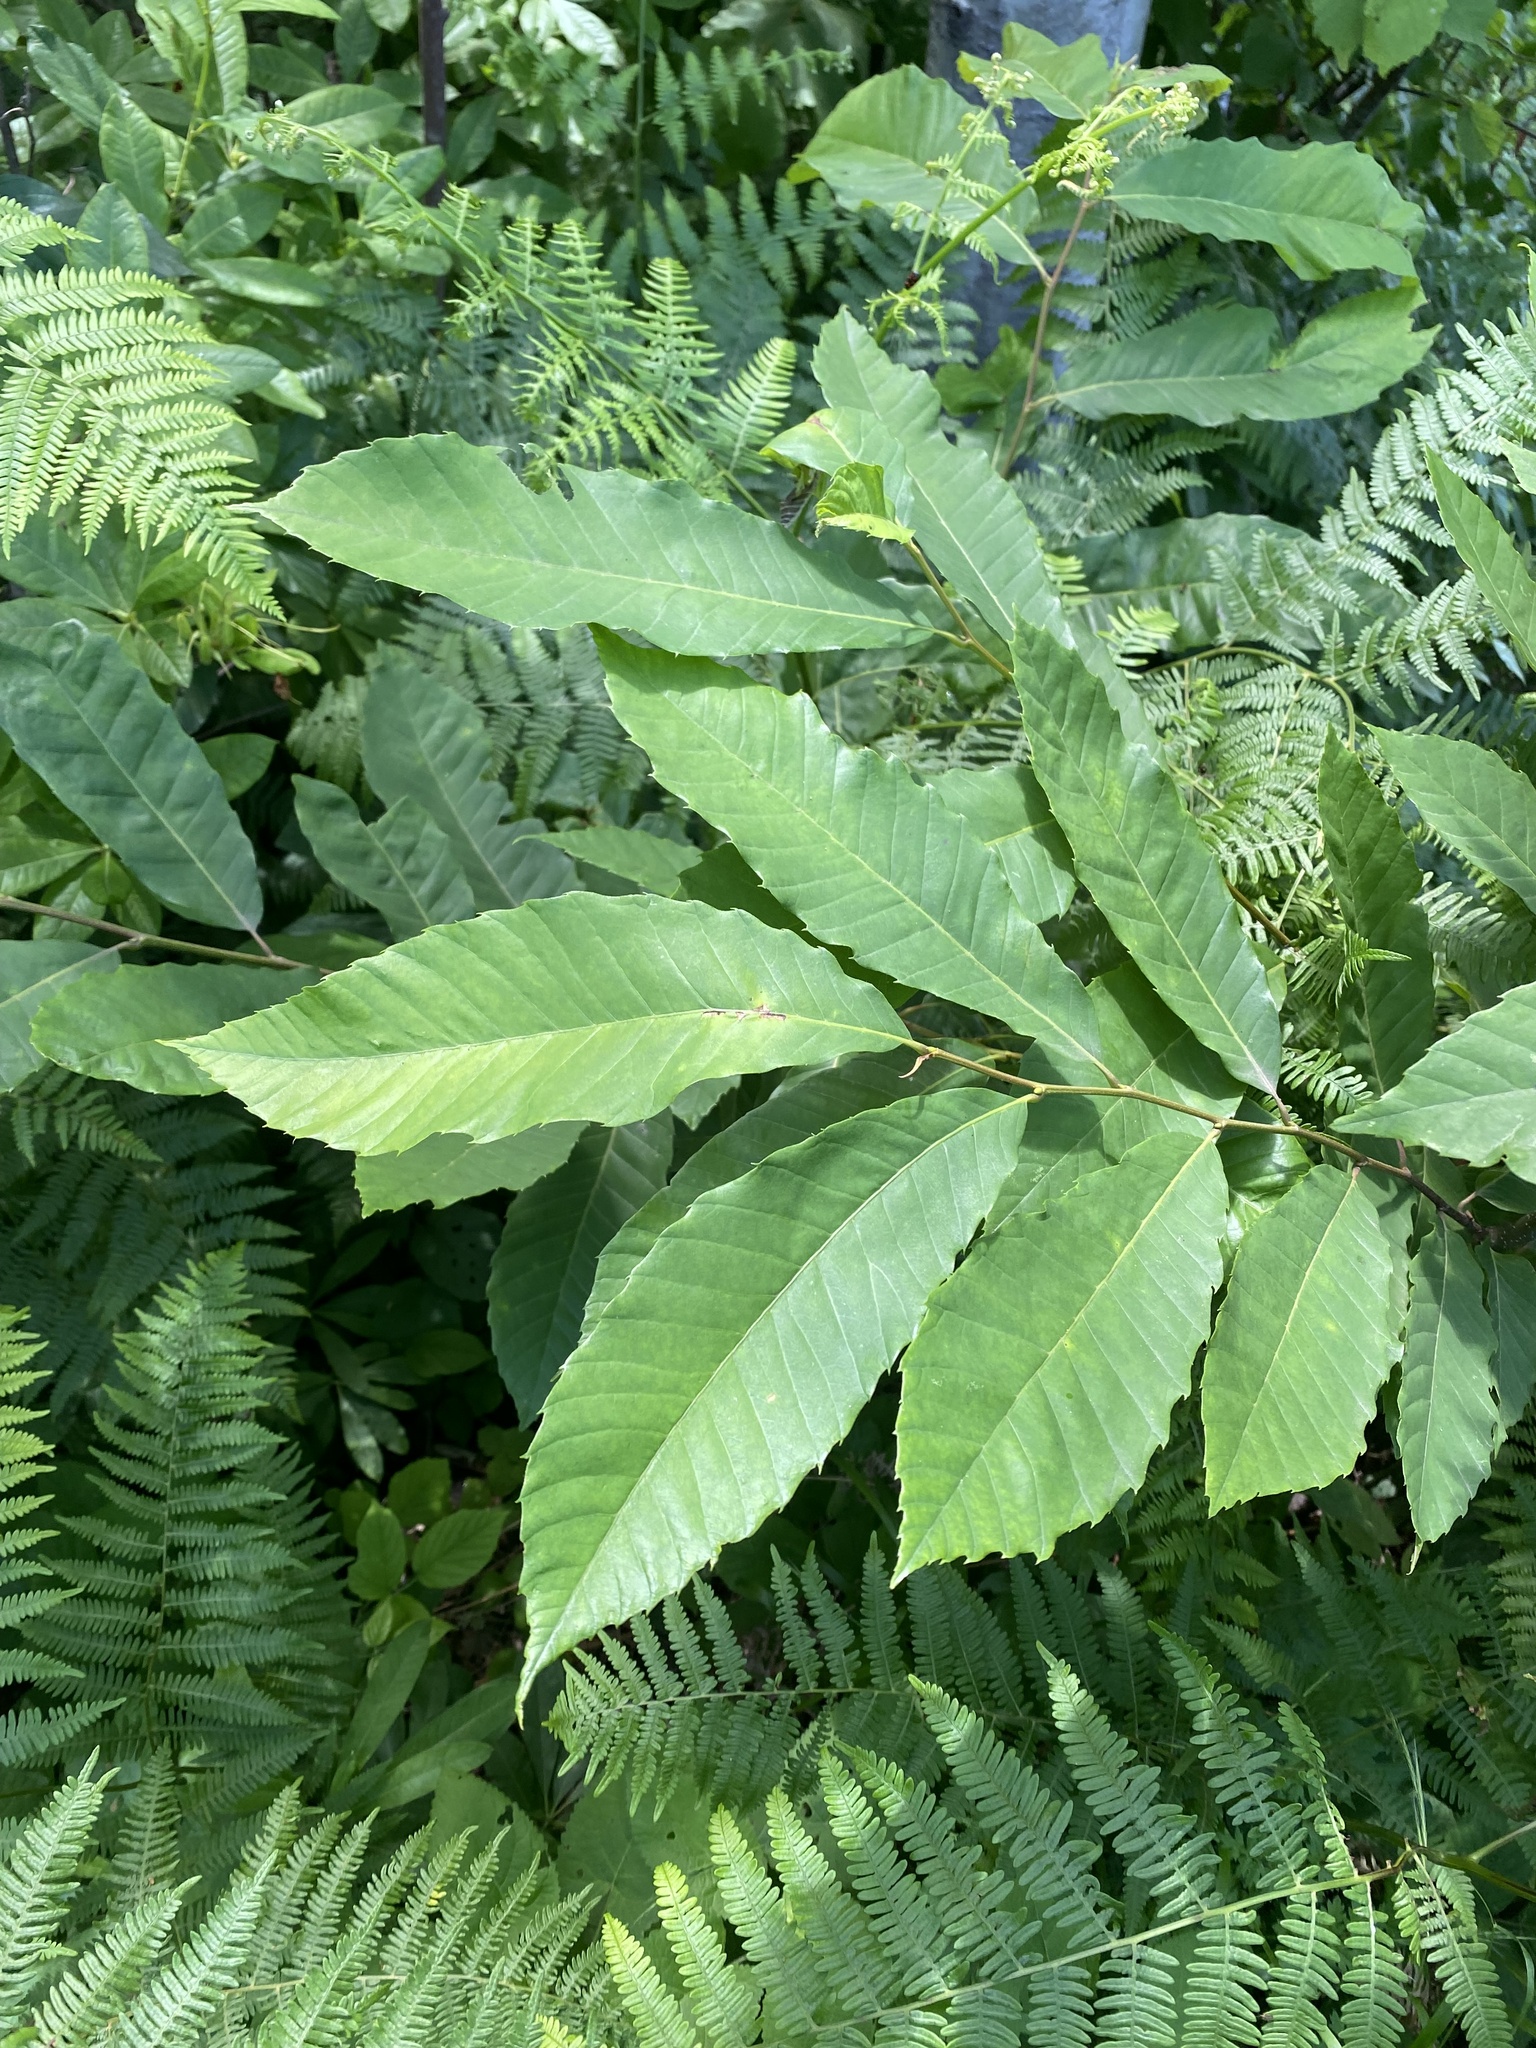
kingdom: Plantae
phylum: Tracheophyta
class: Magnoliopsida
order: Fagales
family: Fagaceae
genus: Castanea
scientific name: Castanea sativa
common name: Sweet chestnut
